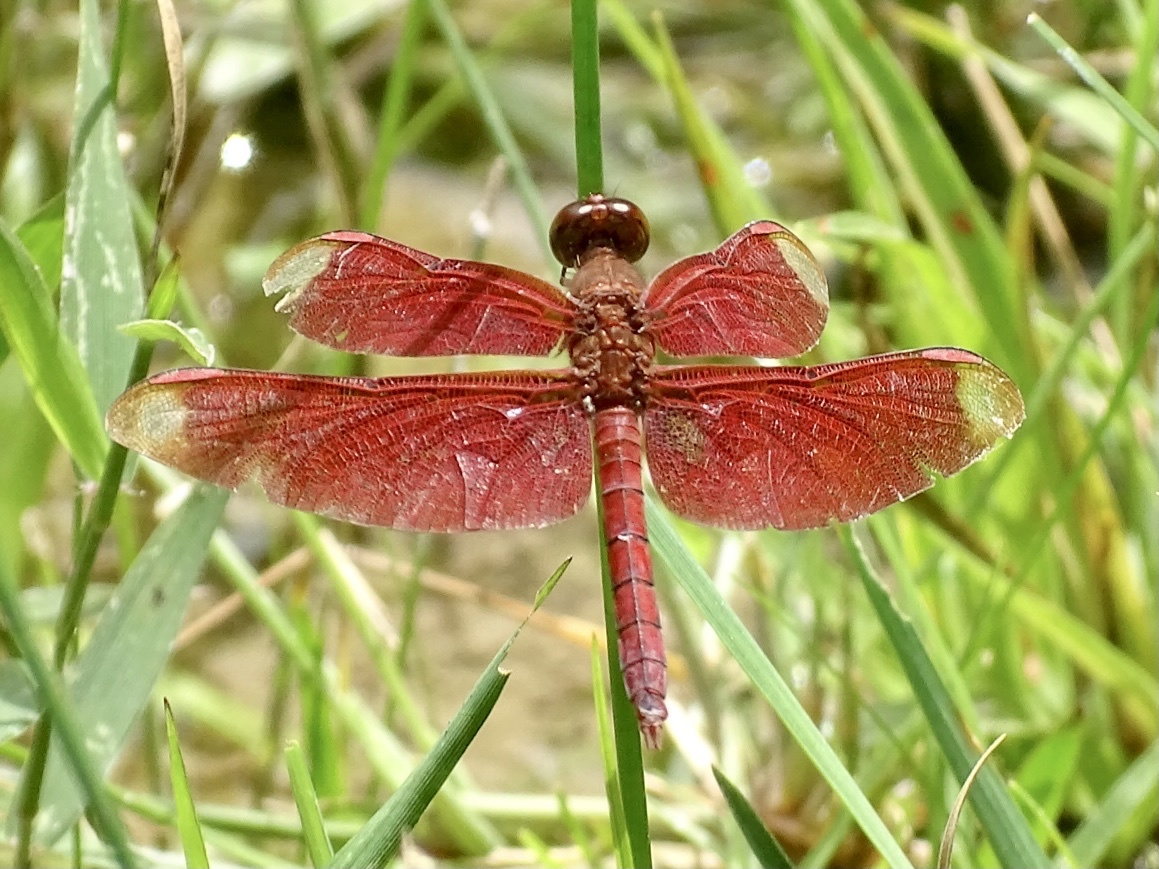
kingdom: Animalia
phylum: Arthropoda
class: Insecta
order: Odonata
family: Libellulidae
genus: Neurothemis
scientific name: Neurothemis fulvia
